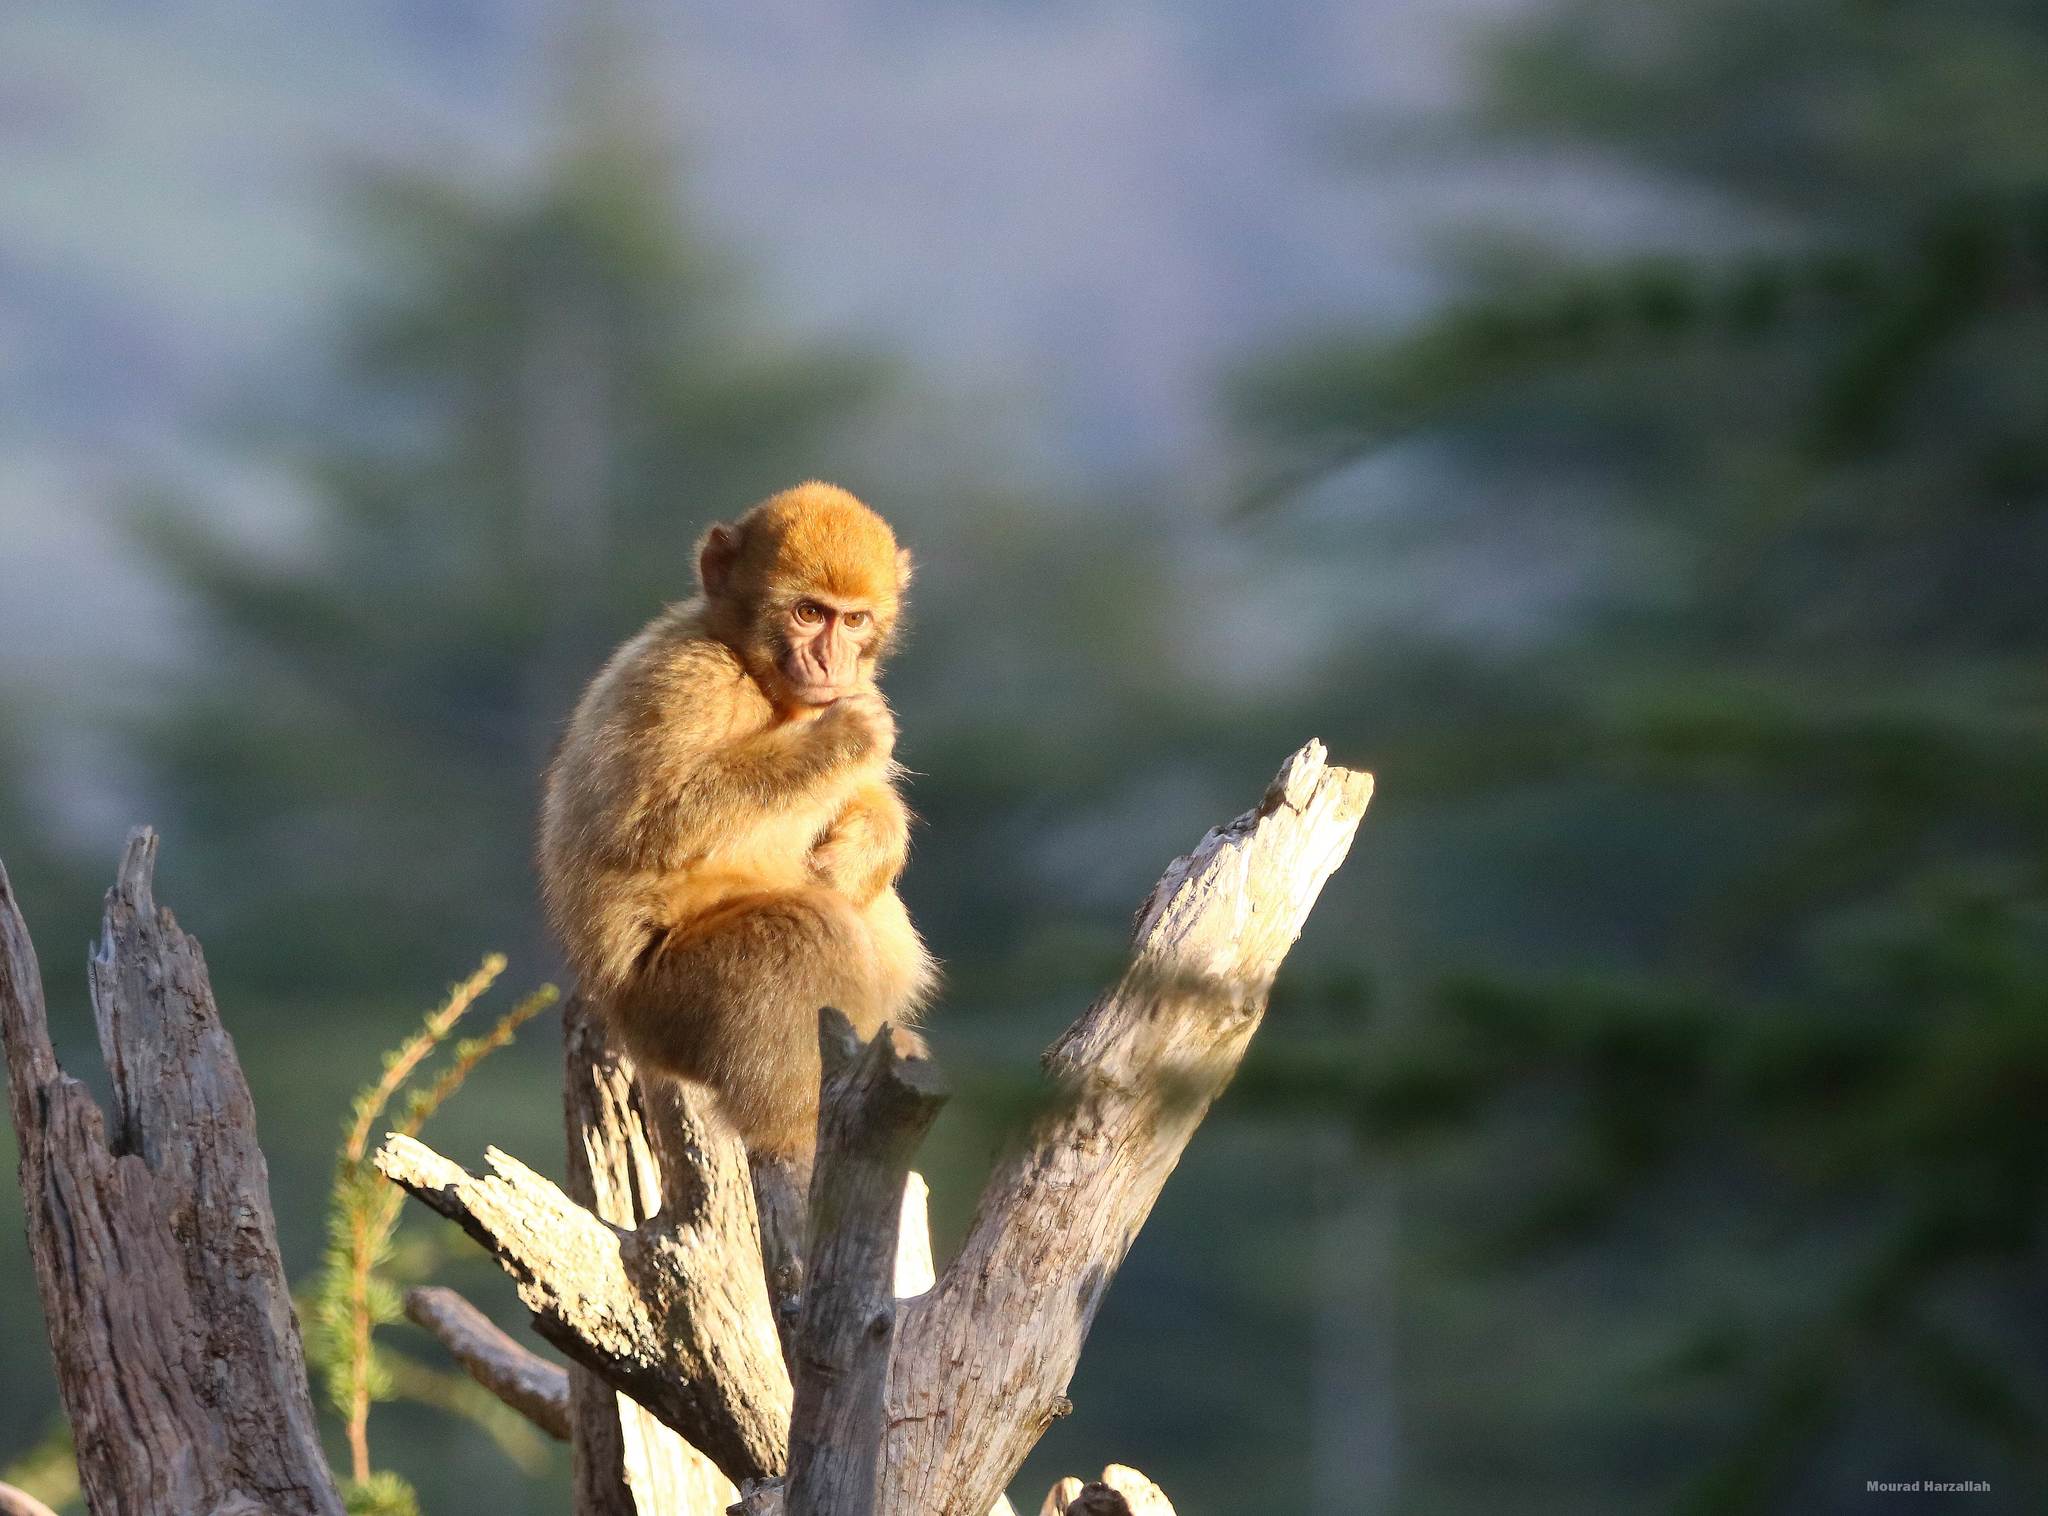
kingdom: Animalia
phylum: Chordata
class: Mammalia
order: Primates
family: Cercopithecidae
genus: Macaca
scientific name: Macaca sylvanus
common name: Barbary macaque
